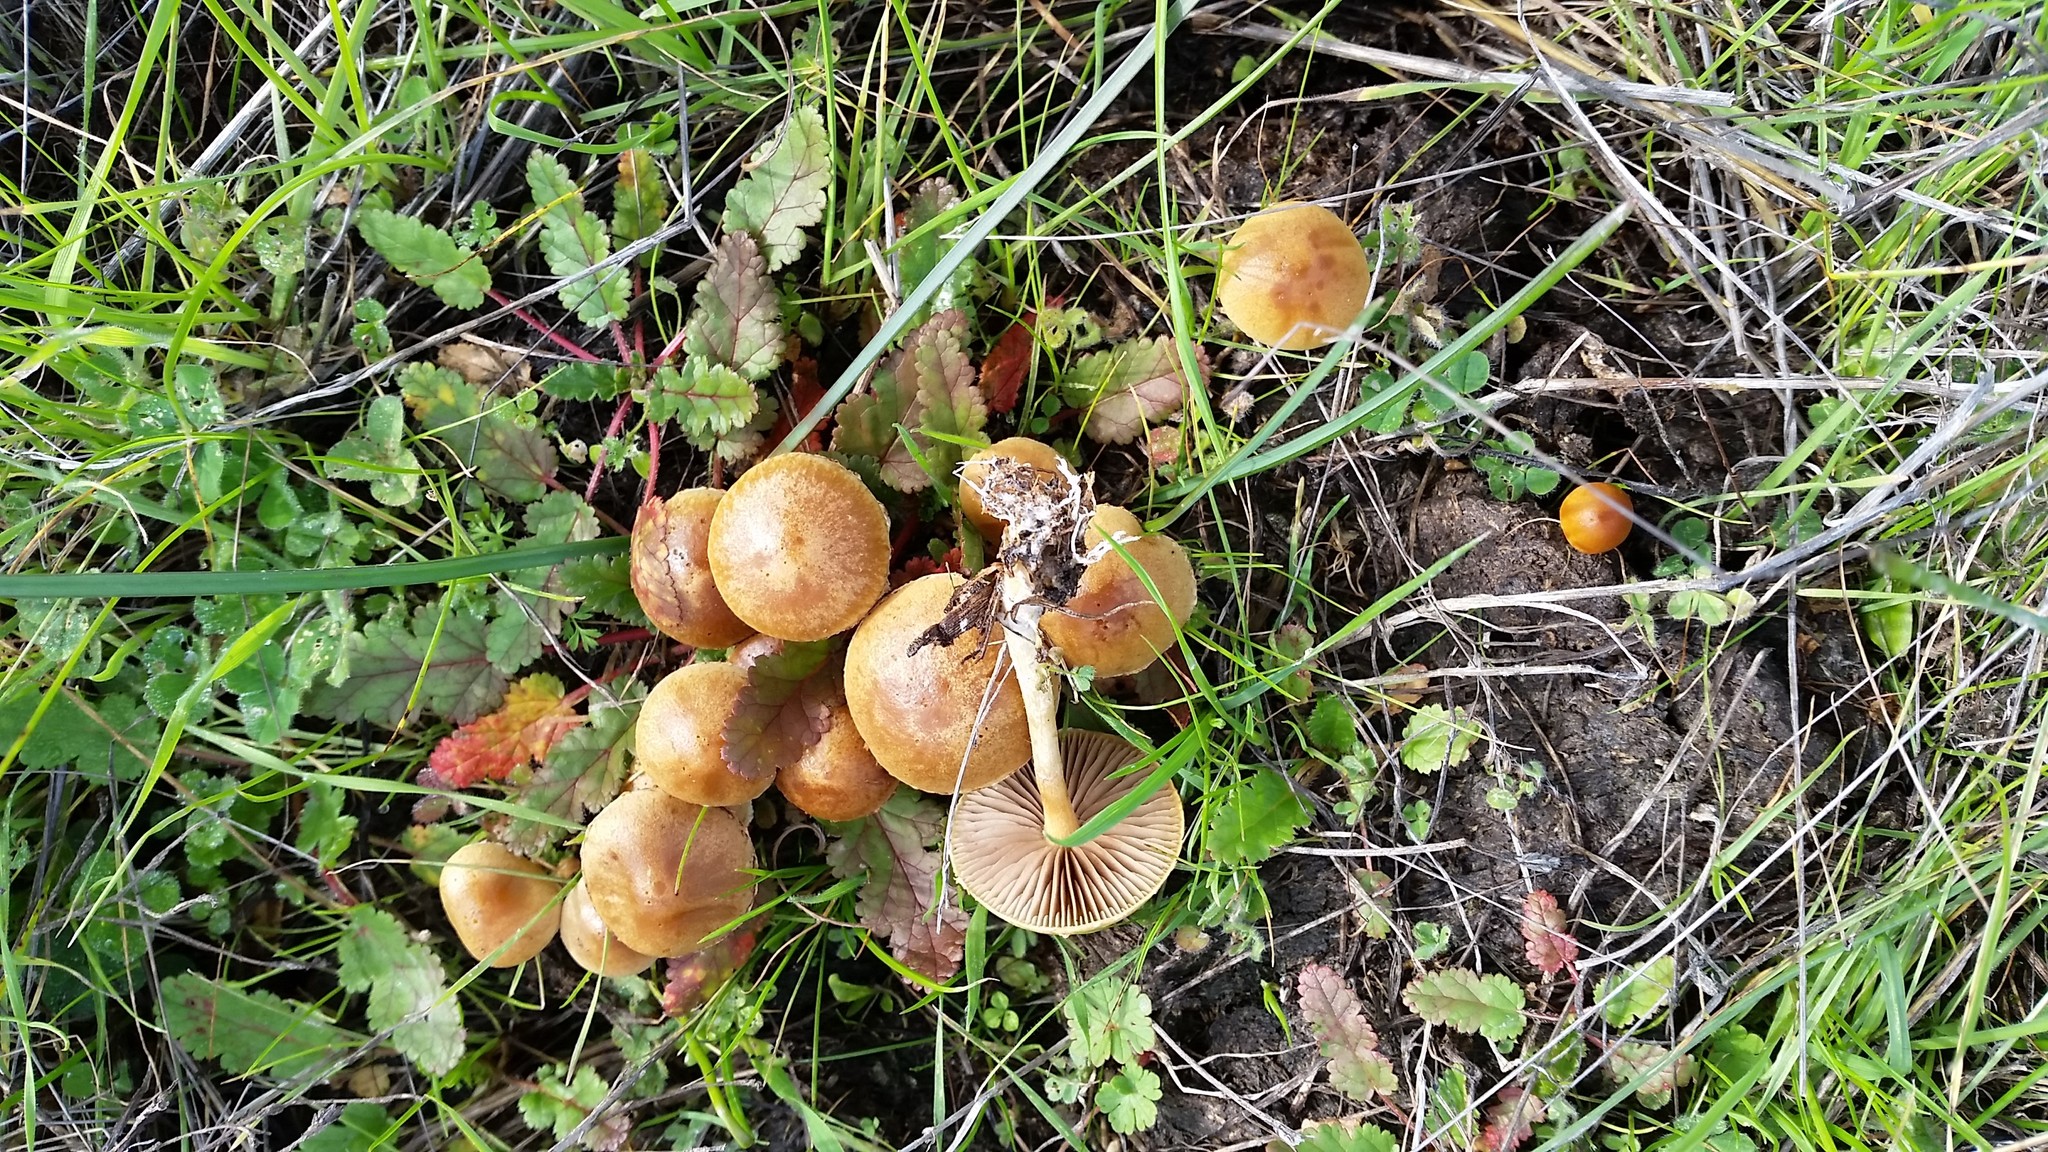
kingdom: Fungi
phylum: Basidiomycota
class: Agaricomycetes
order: Agaricales
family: Strophariaceae
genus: Agrocybe
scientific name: Agrocybe pediades
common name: Common fieldcap
